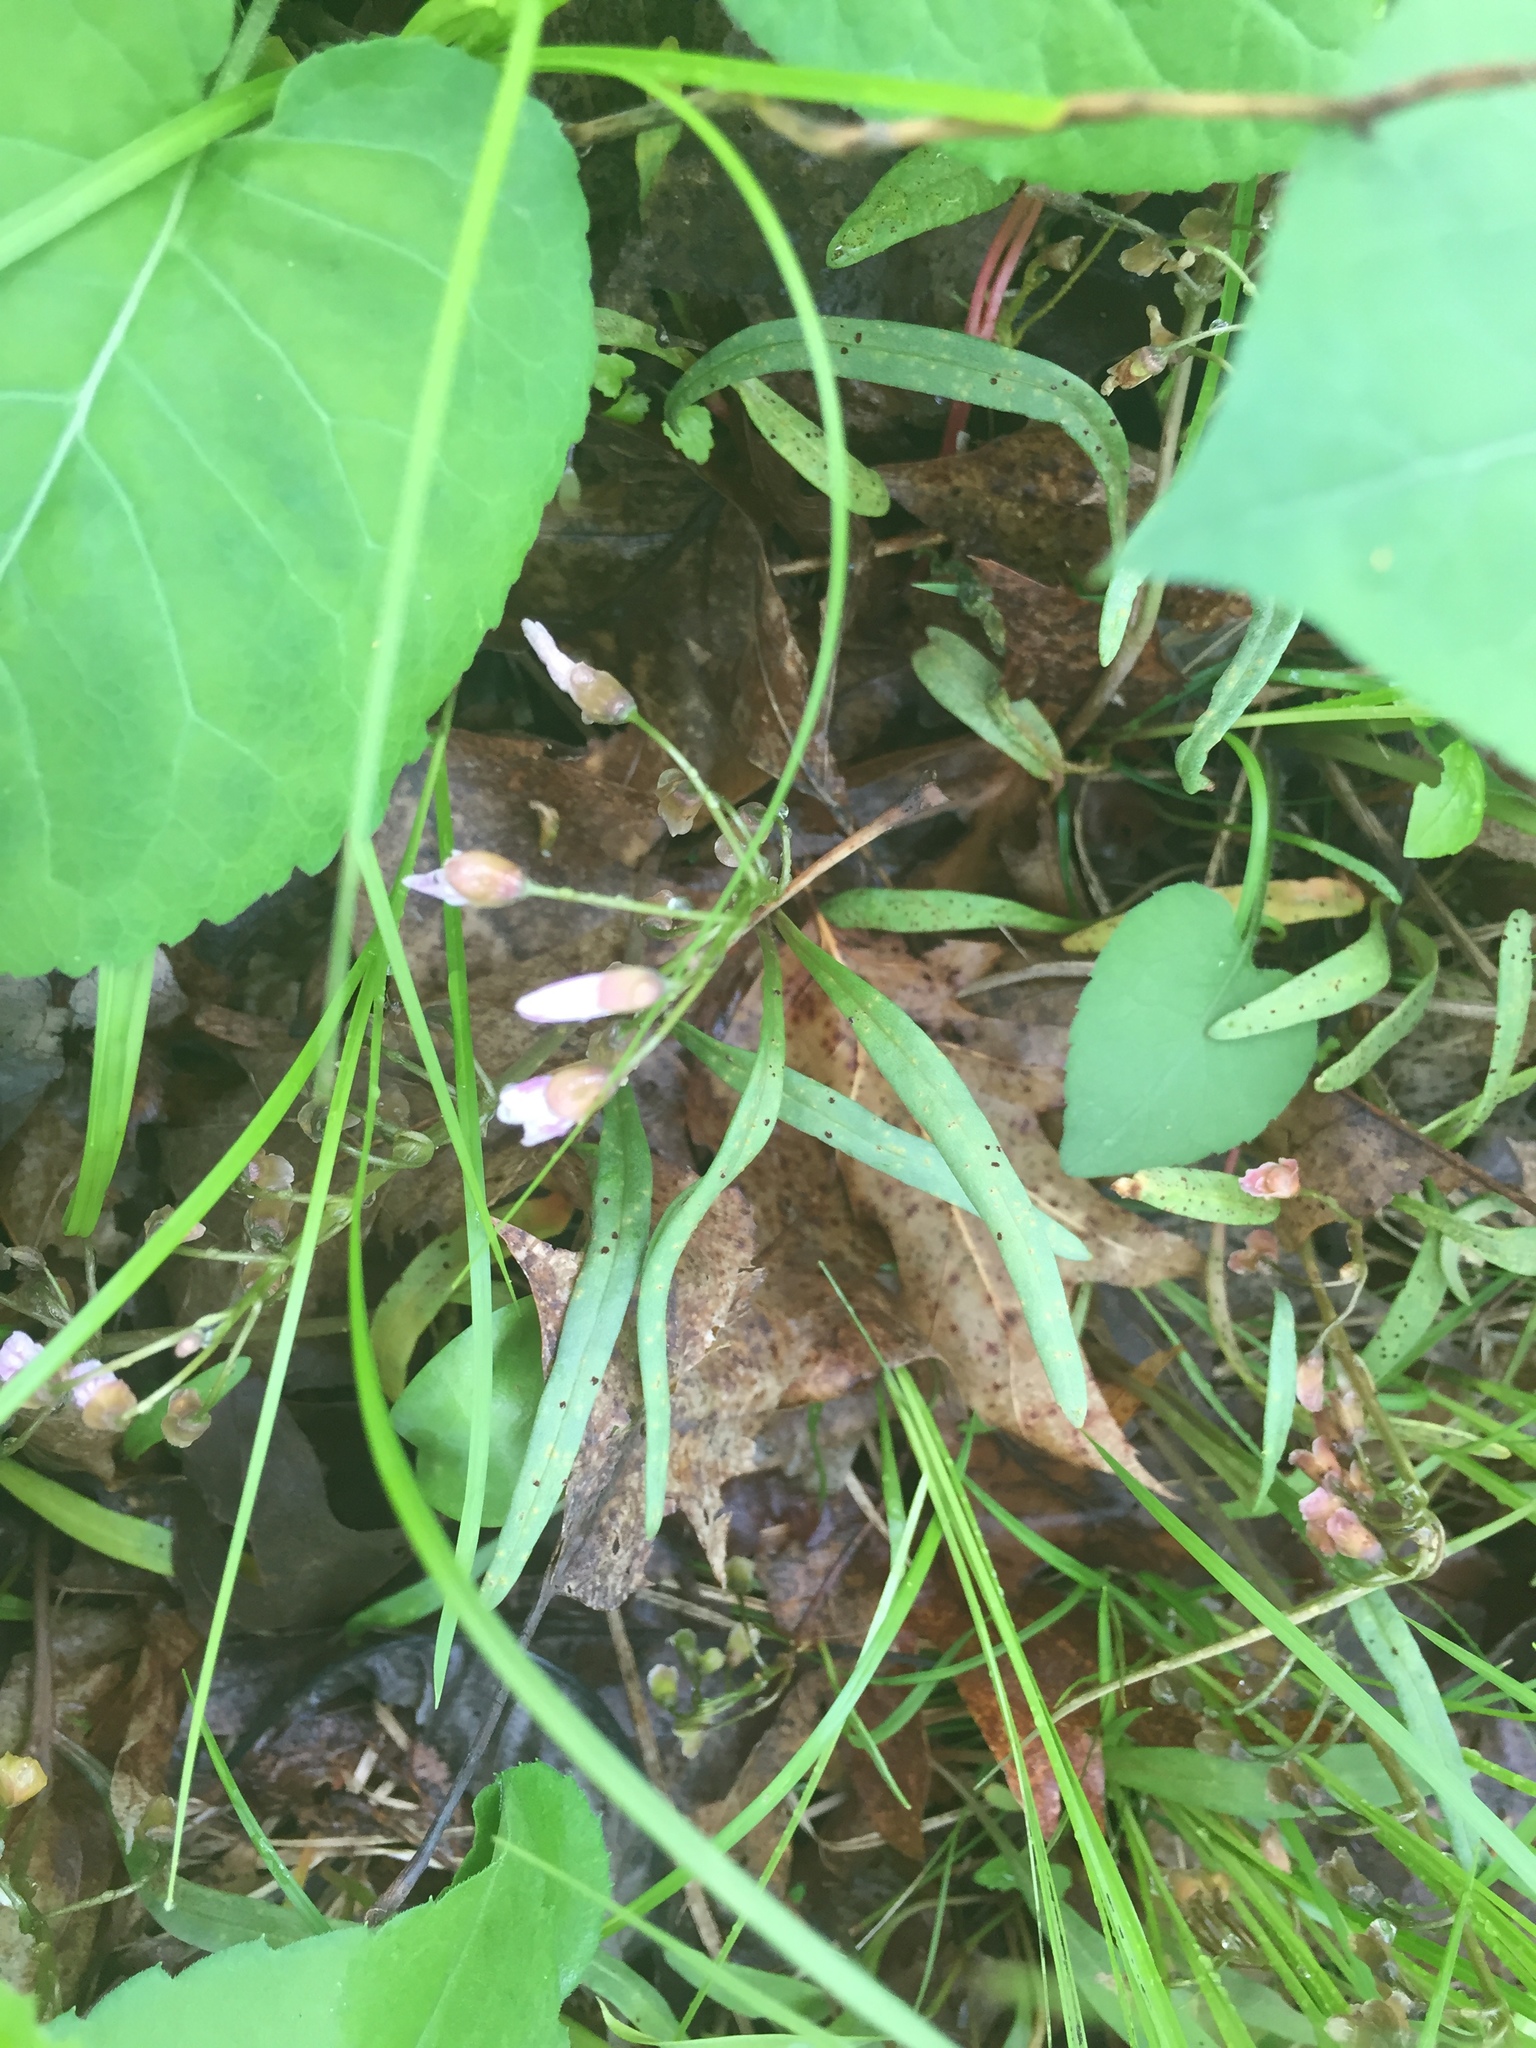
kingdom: Plantae
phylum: Tracheophyta
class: Magnoliopsida
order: Caryophyllales
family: Montiaceae
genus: Claytonia
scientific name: Claytonia virginica
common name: Virginia springbeauty
